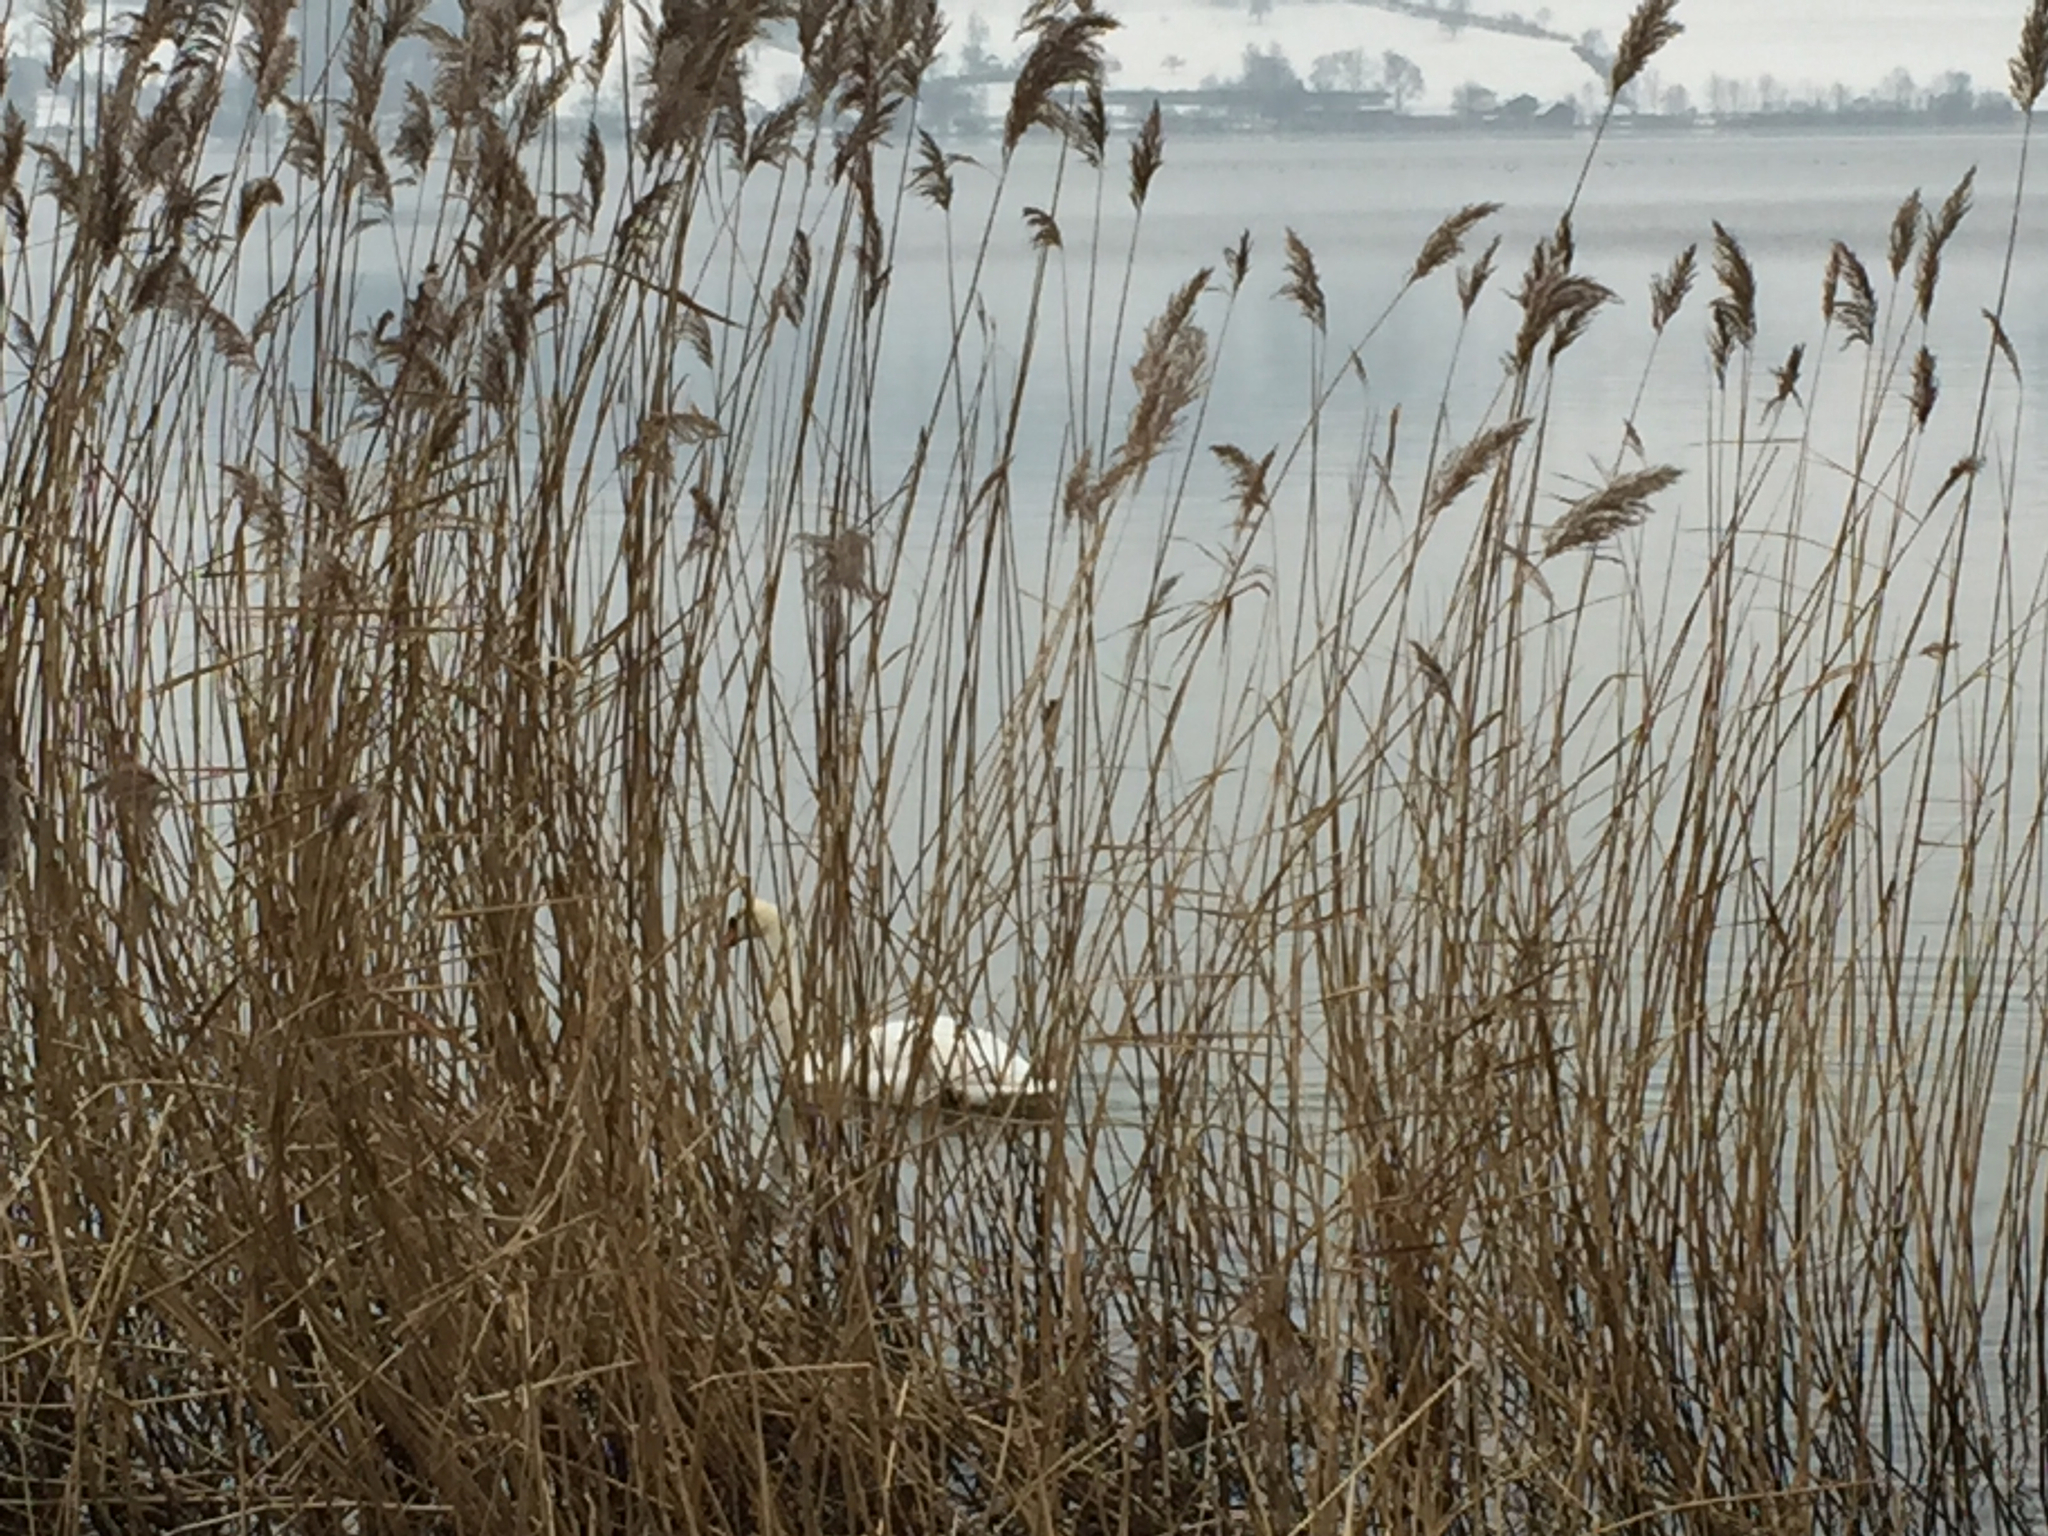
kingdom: Animalia
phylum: Chordata
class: Aves
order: Anseriformes
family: Anatidae
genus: Cygnus
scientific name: Cygnus olor
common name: Mute swan
